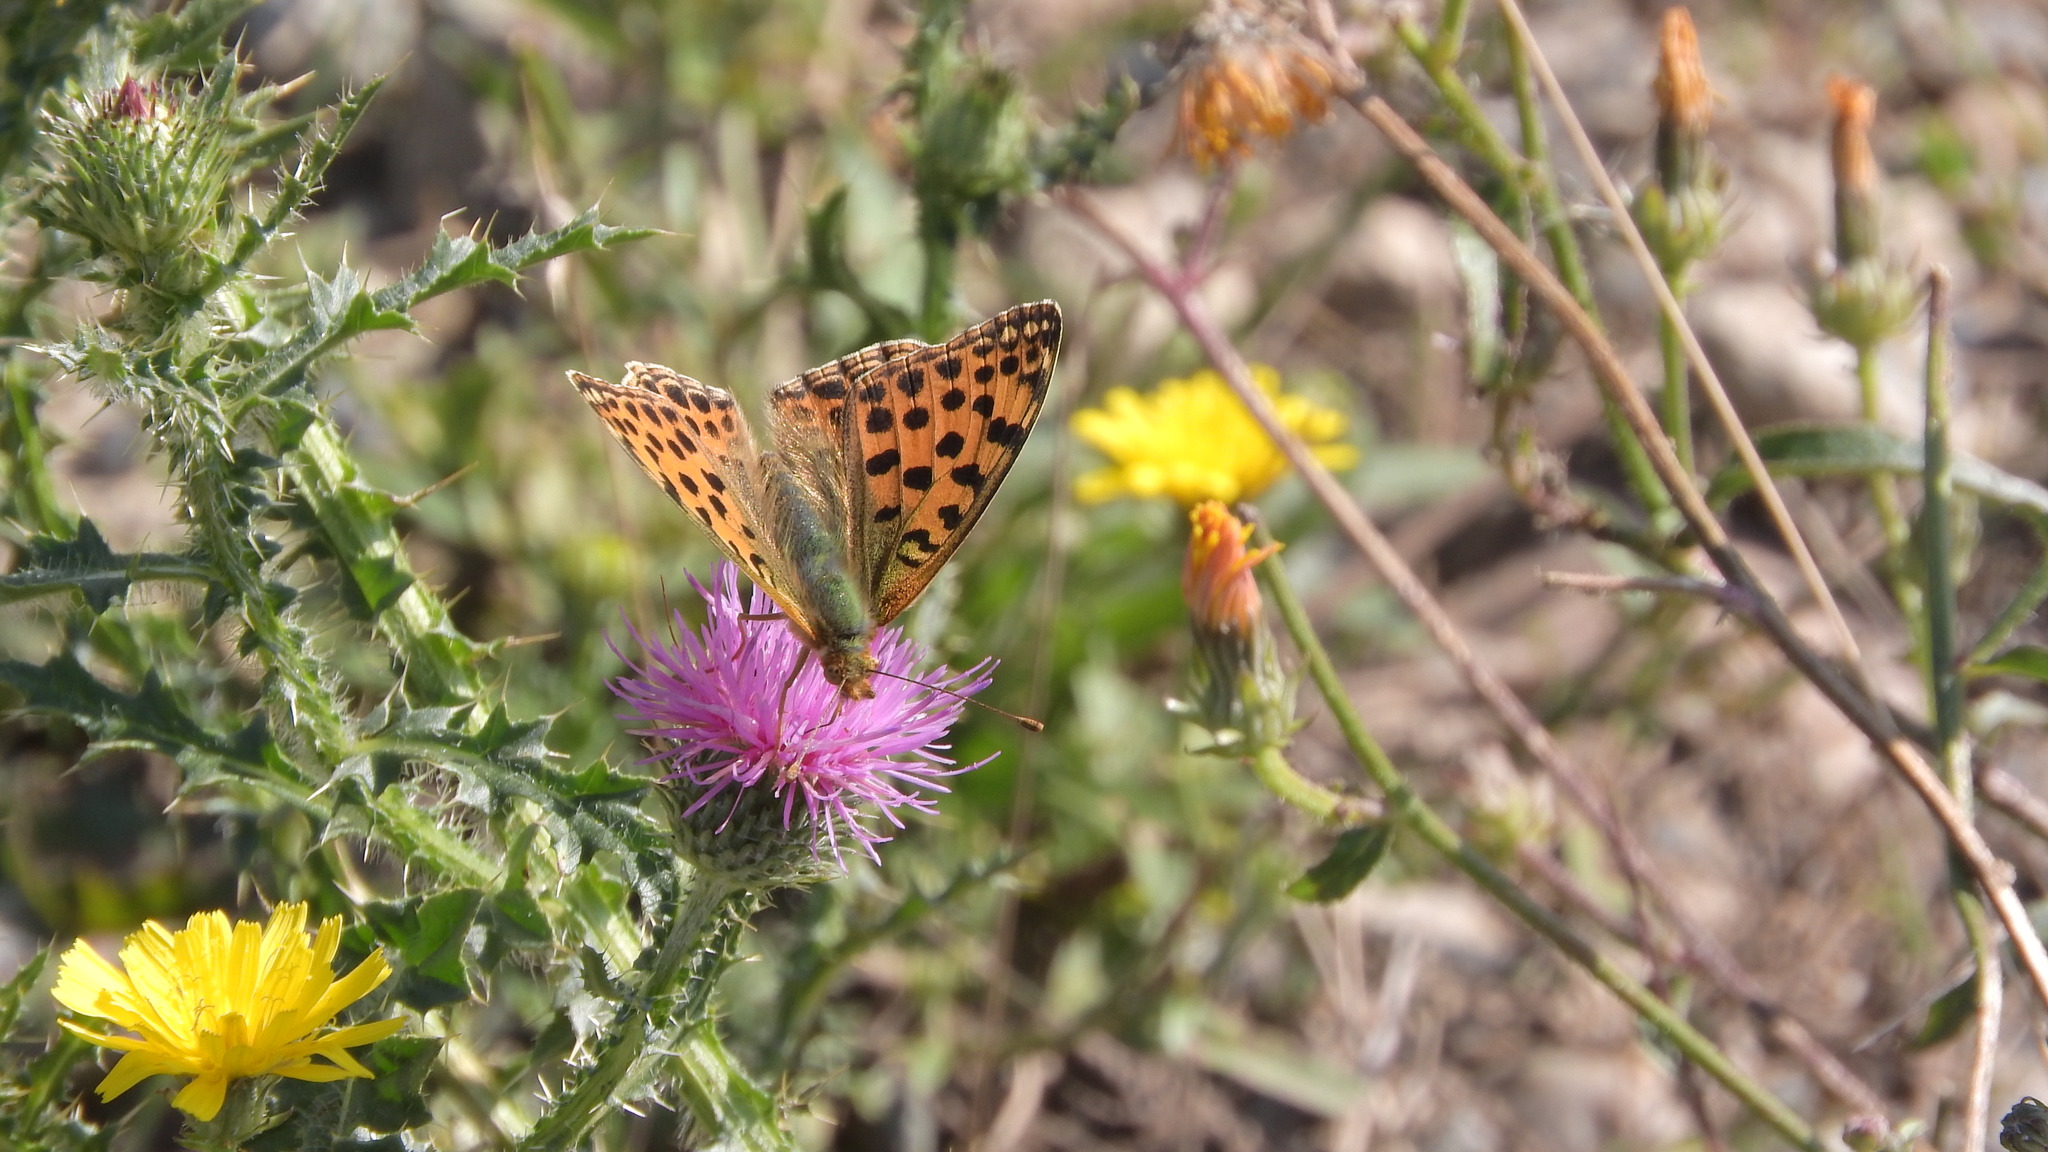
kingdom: Animalia
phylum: Arthropoda
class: Insecta
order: Lepidoptera
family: Nymphalidae
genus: Issoria
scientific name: Issoria lathonia
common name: Queen of spain fritillary
